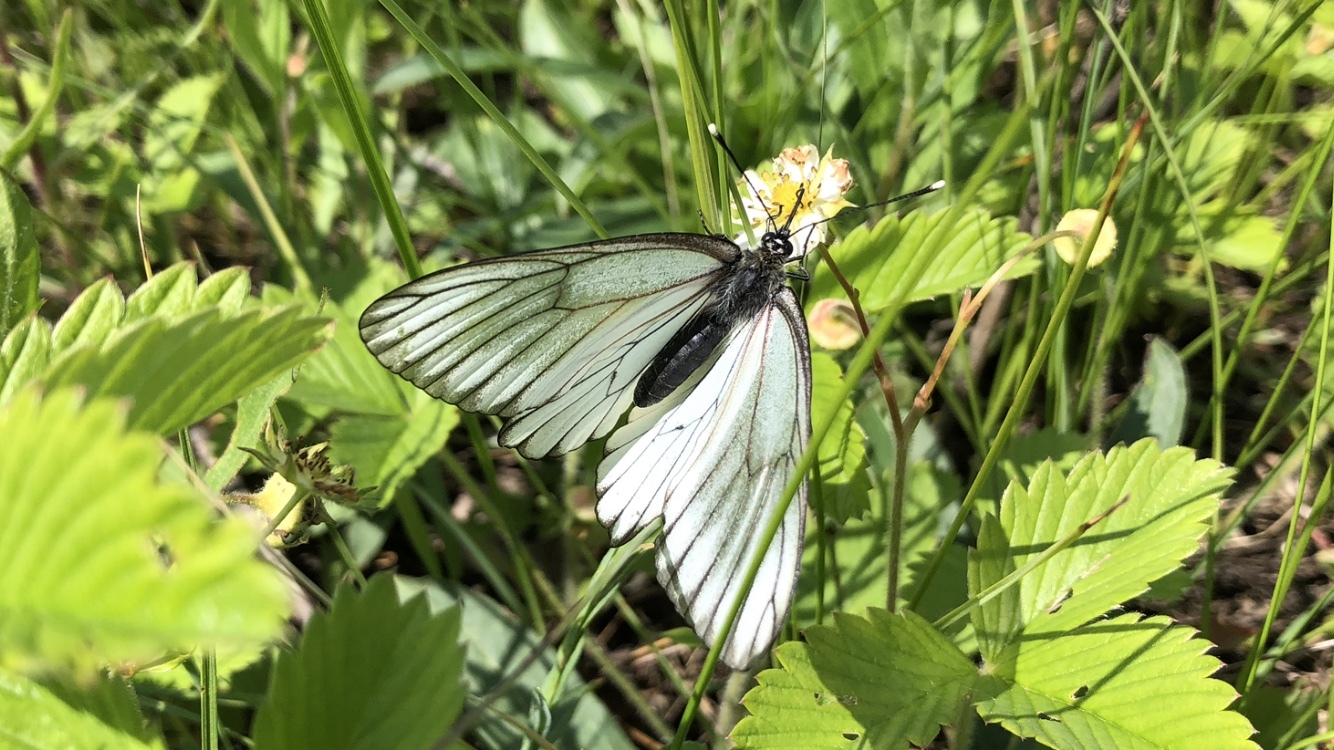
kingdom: Animalia
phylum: Arthropoda
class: Insecta
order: Lepidoptera
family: Pieridae
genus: Aporia
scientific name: Aporia crataegi
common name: Black-veined white
